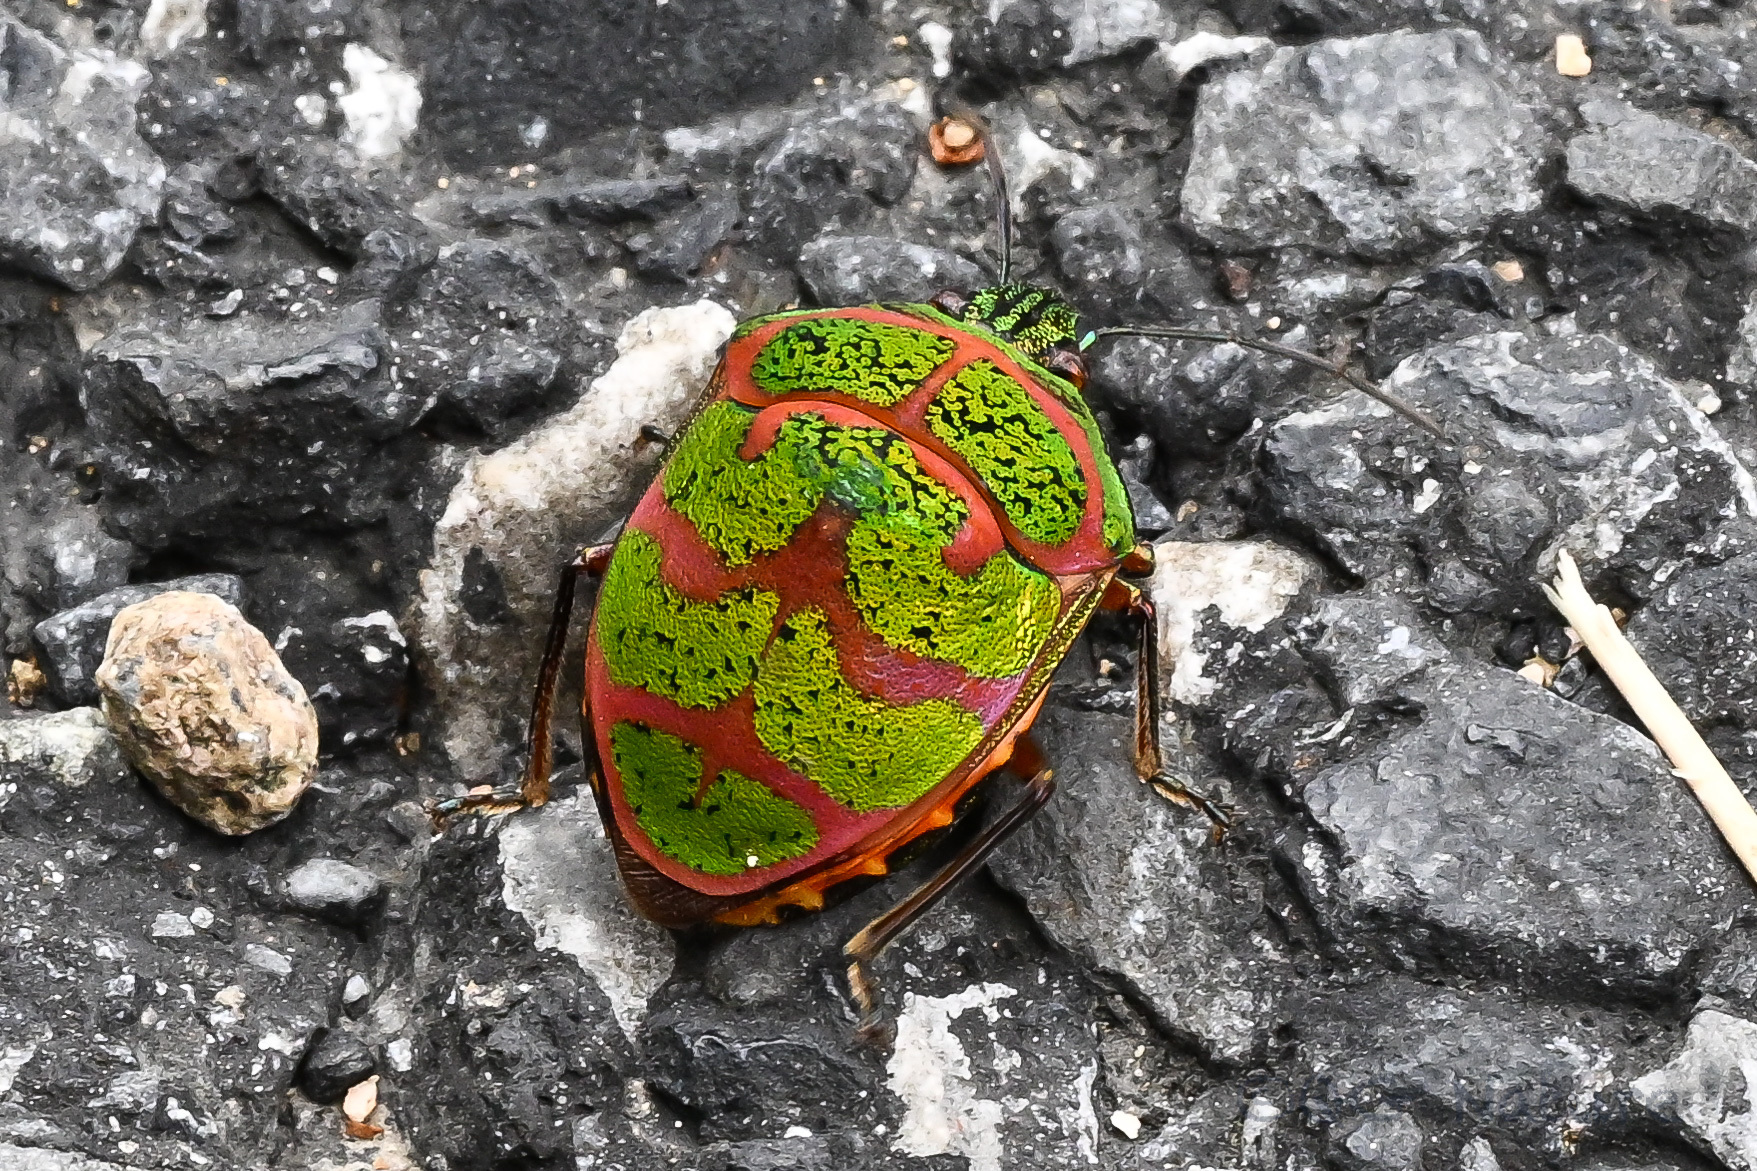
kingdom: Animalia
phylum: Arthropoda
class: Insecta
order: Hemiptera
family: Scutelleridae
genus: Poecilocoris
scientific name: Poecilocoris lewisi
